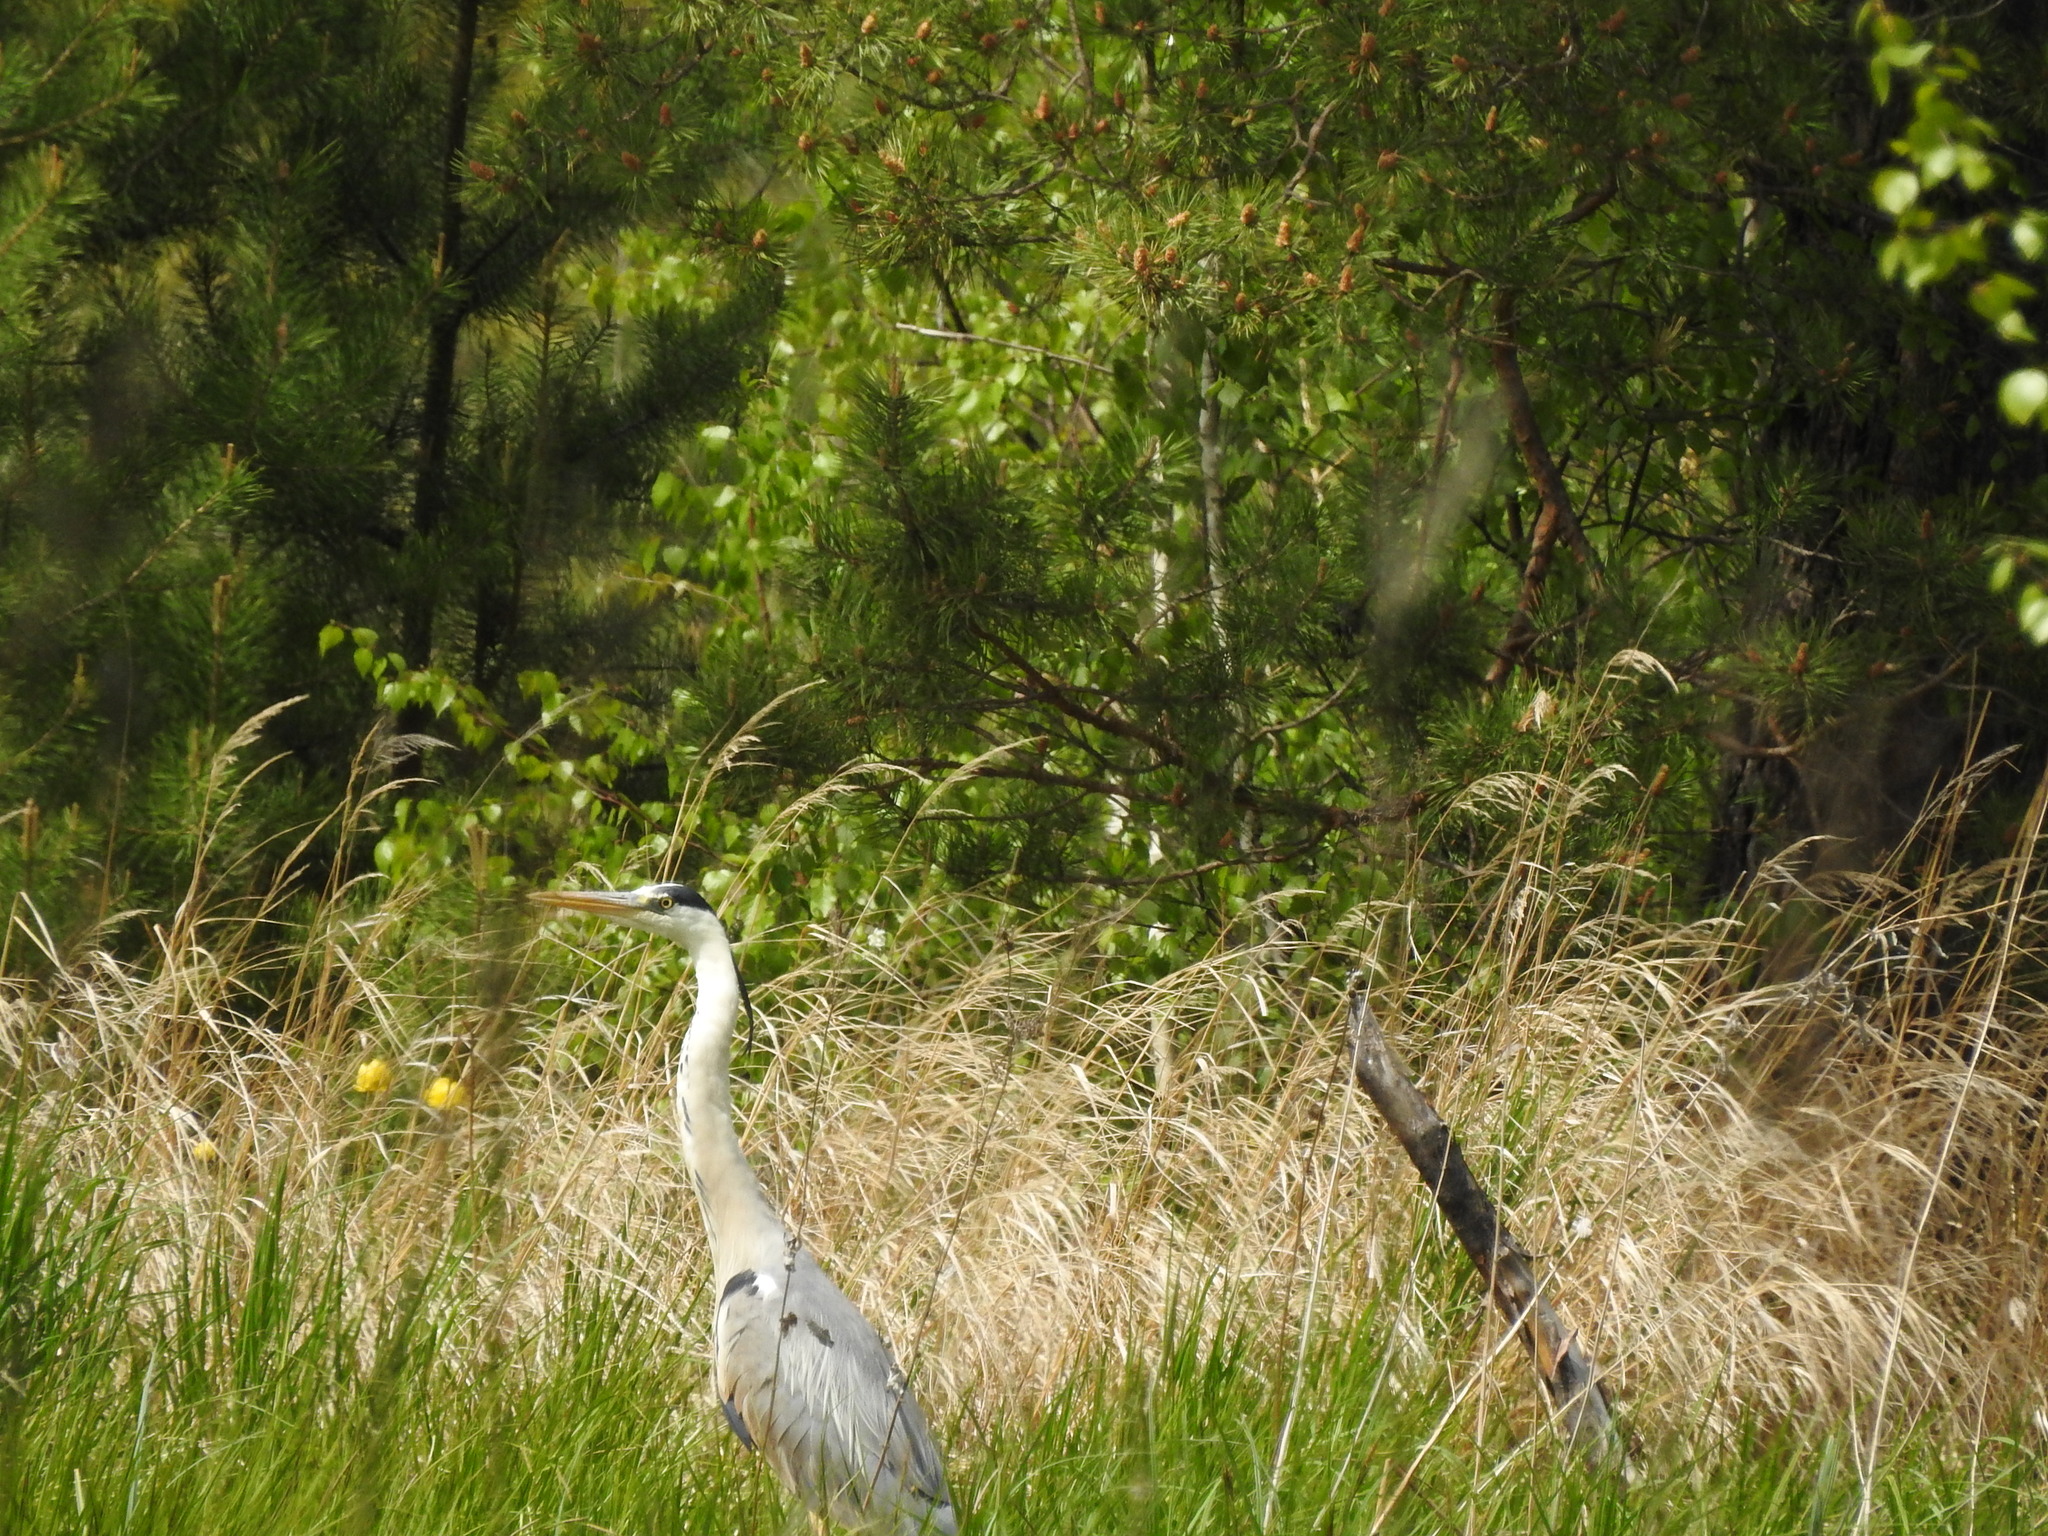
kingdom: Animalia
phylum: Chordata
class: Aves
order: Pelecaniformes
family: Ardeidae
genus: Ardea
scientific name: Ardea cinerea
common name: Grey heron
